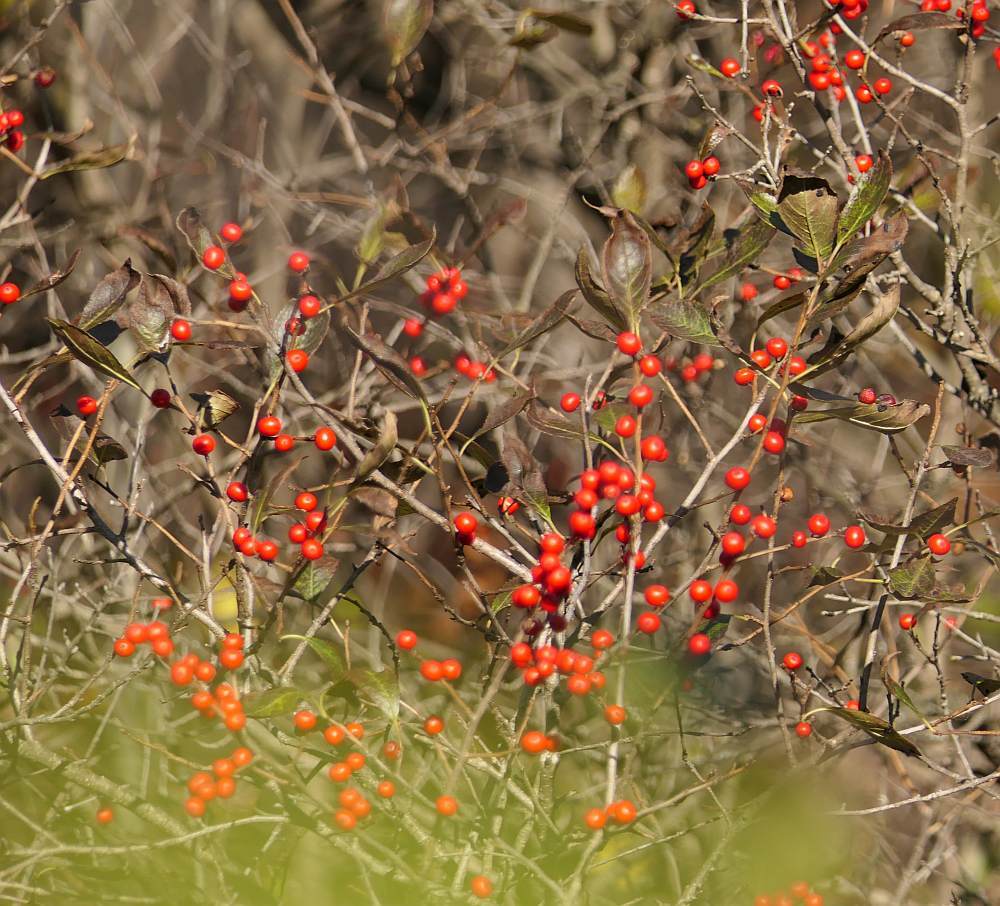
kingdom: Plantae
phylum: Tracheophyta
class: Magnoliopsida
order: Aquifoliales
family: Aquifoliaceae
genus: Ilex
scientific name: Ilex verticillata
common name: Virginia winterberry
